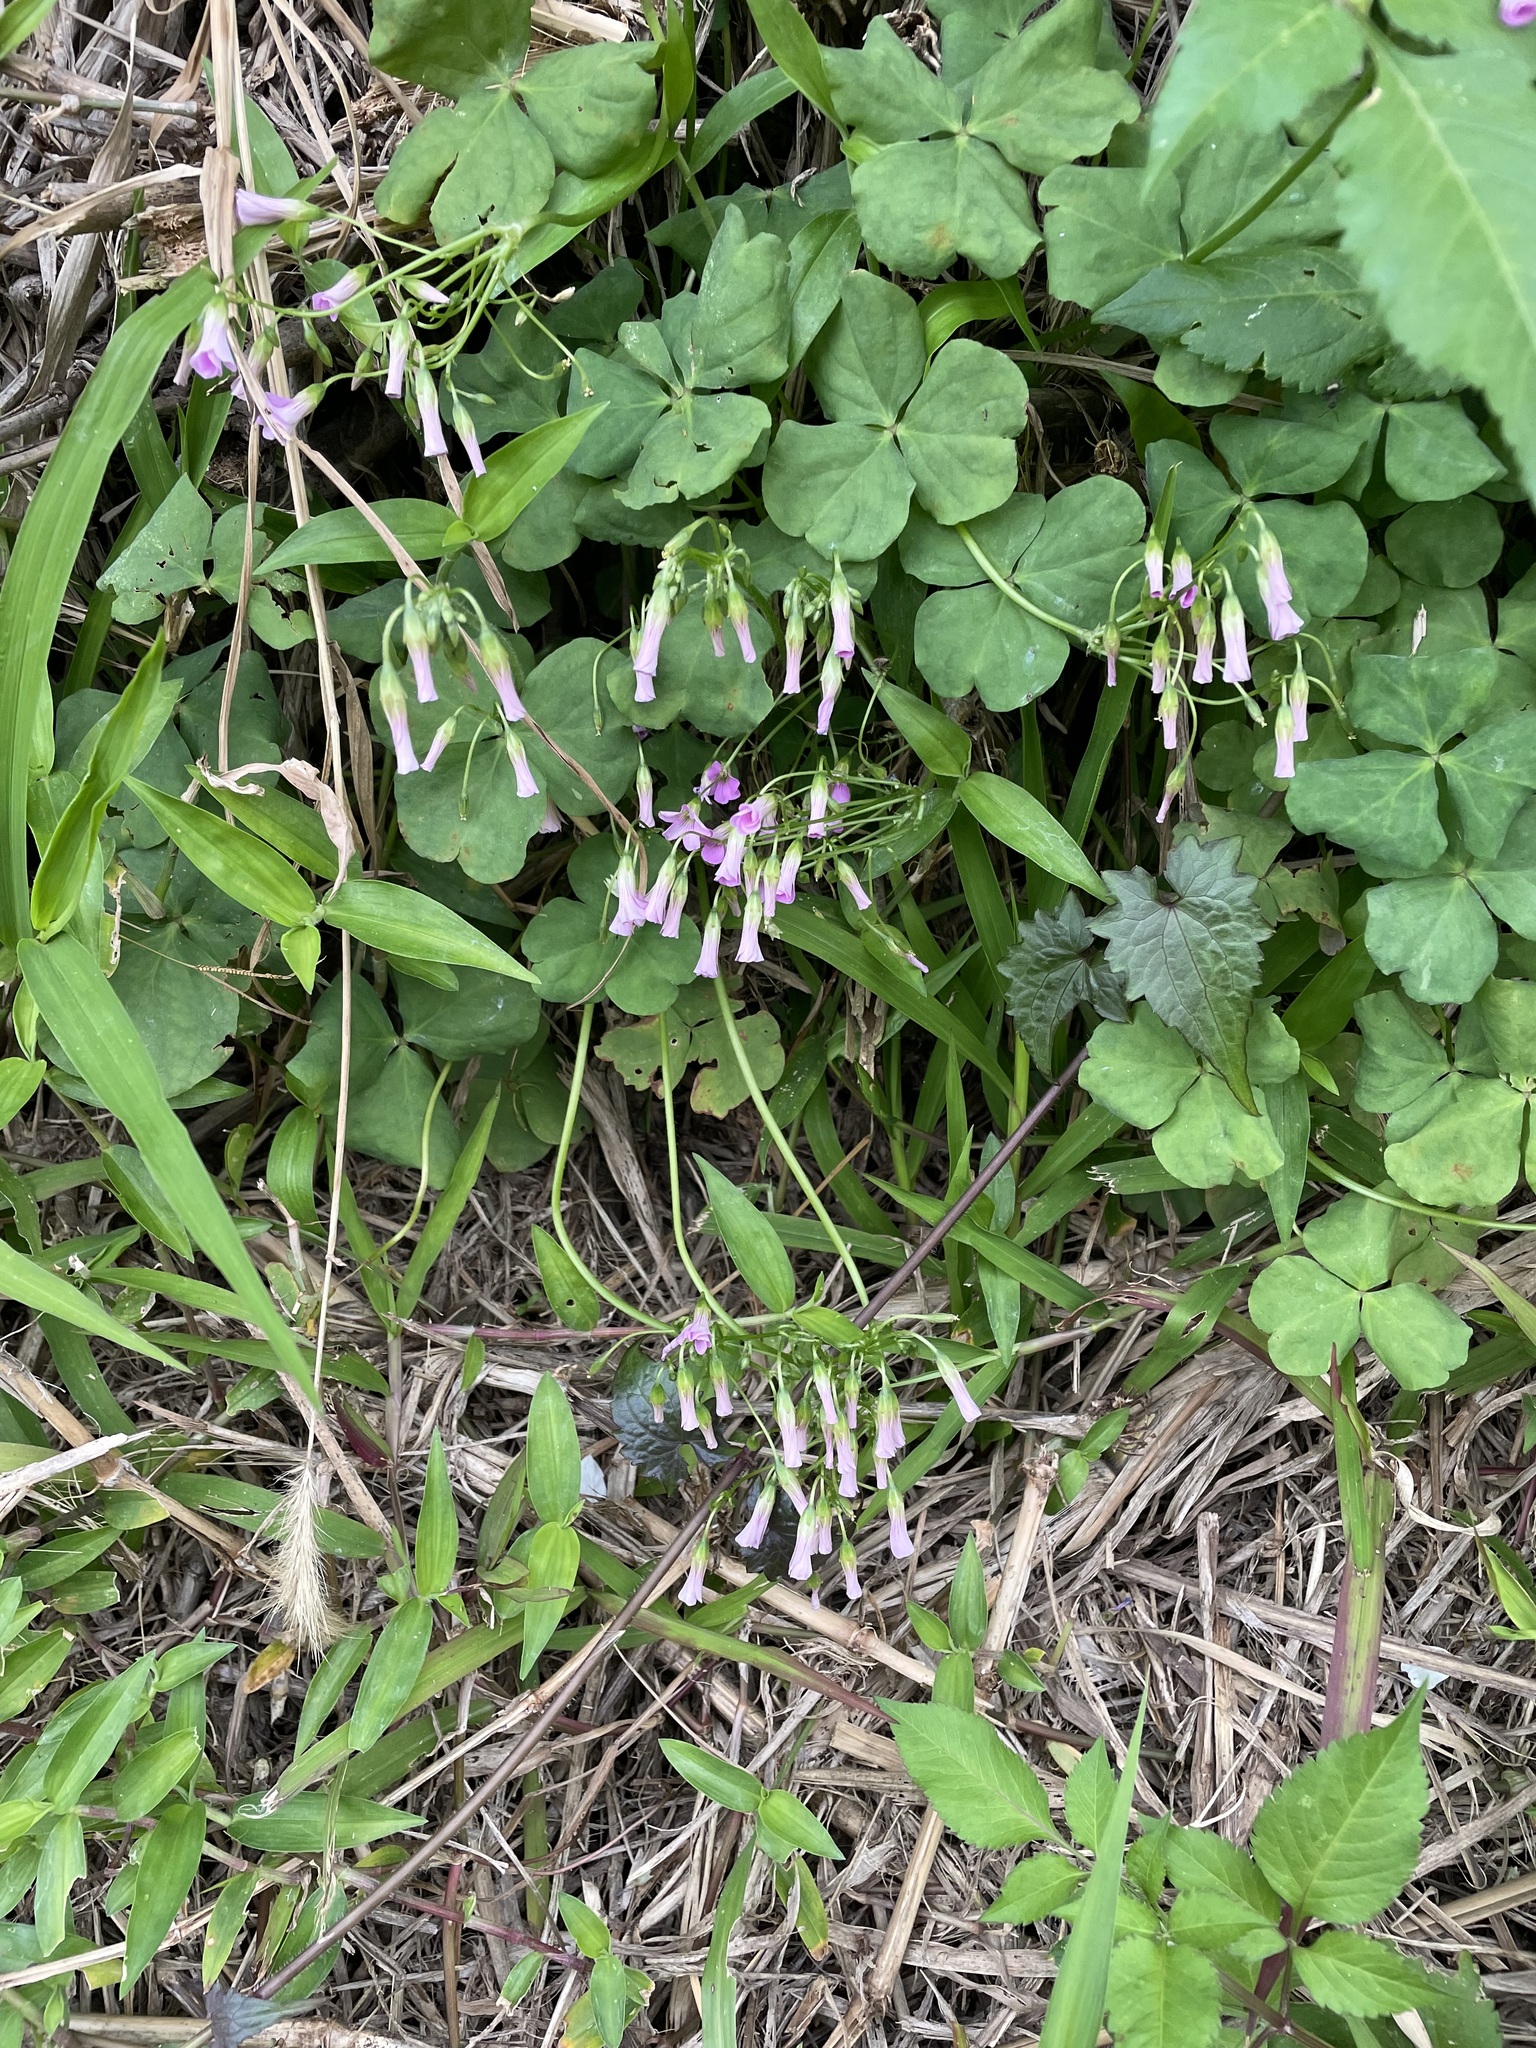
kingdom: Plantae
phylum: Tracheophyta
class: Magnoliopsida
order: Oxalidales
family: Oxalidaceae
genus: Oxalis
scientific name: Oxalis debilis
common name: Large-flowered pink-sorrel
